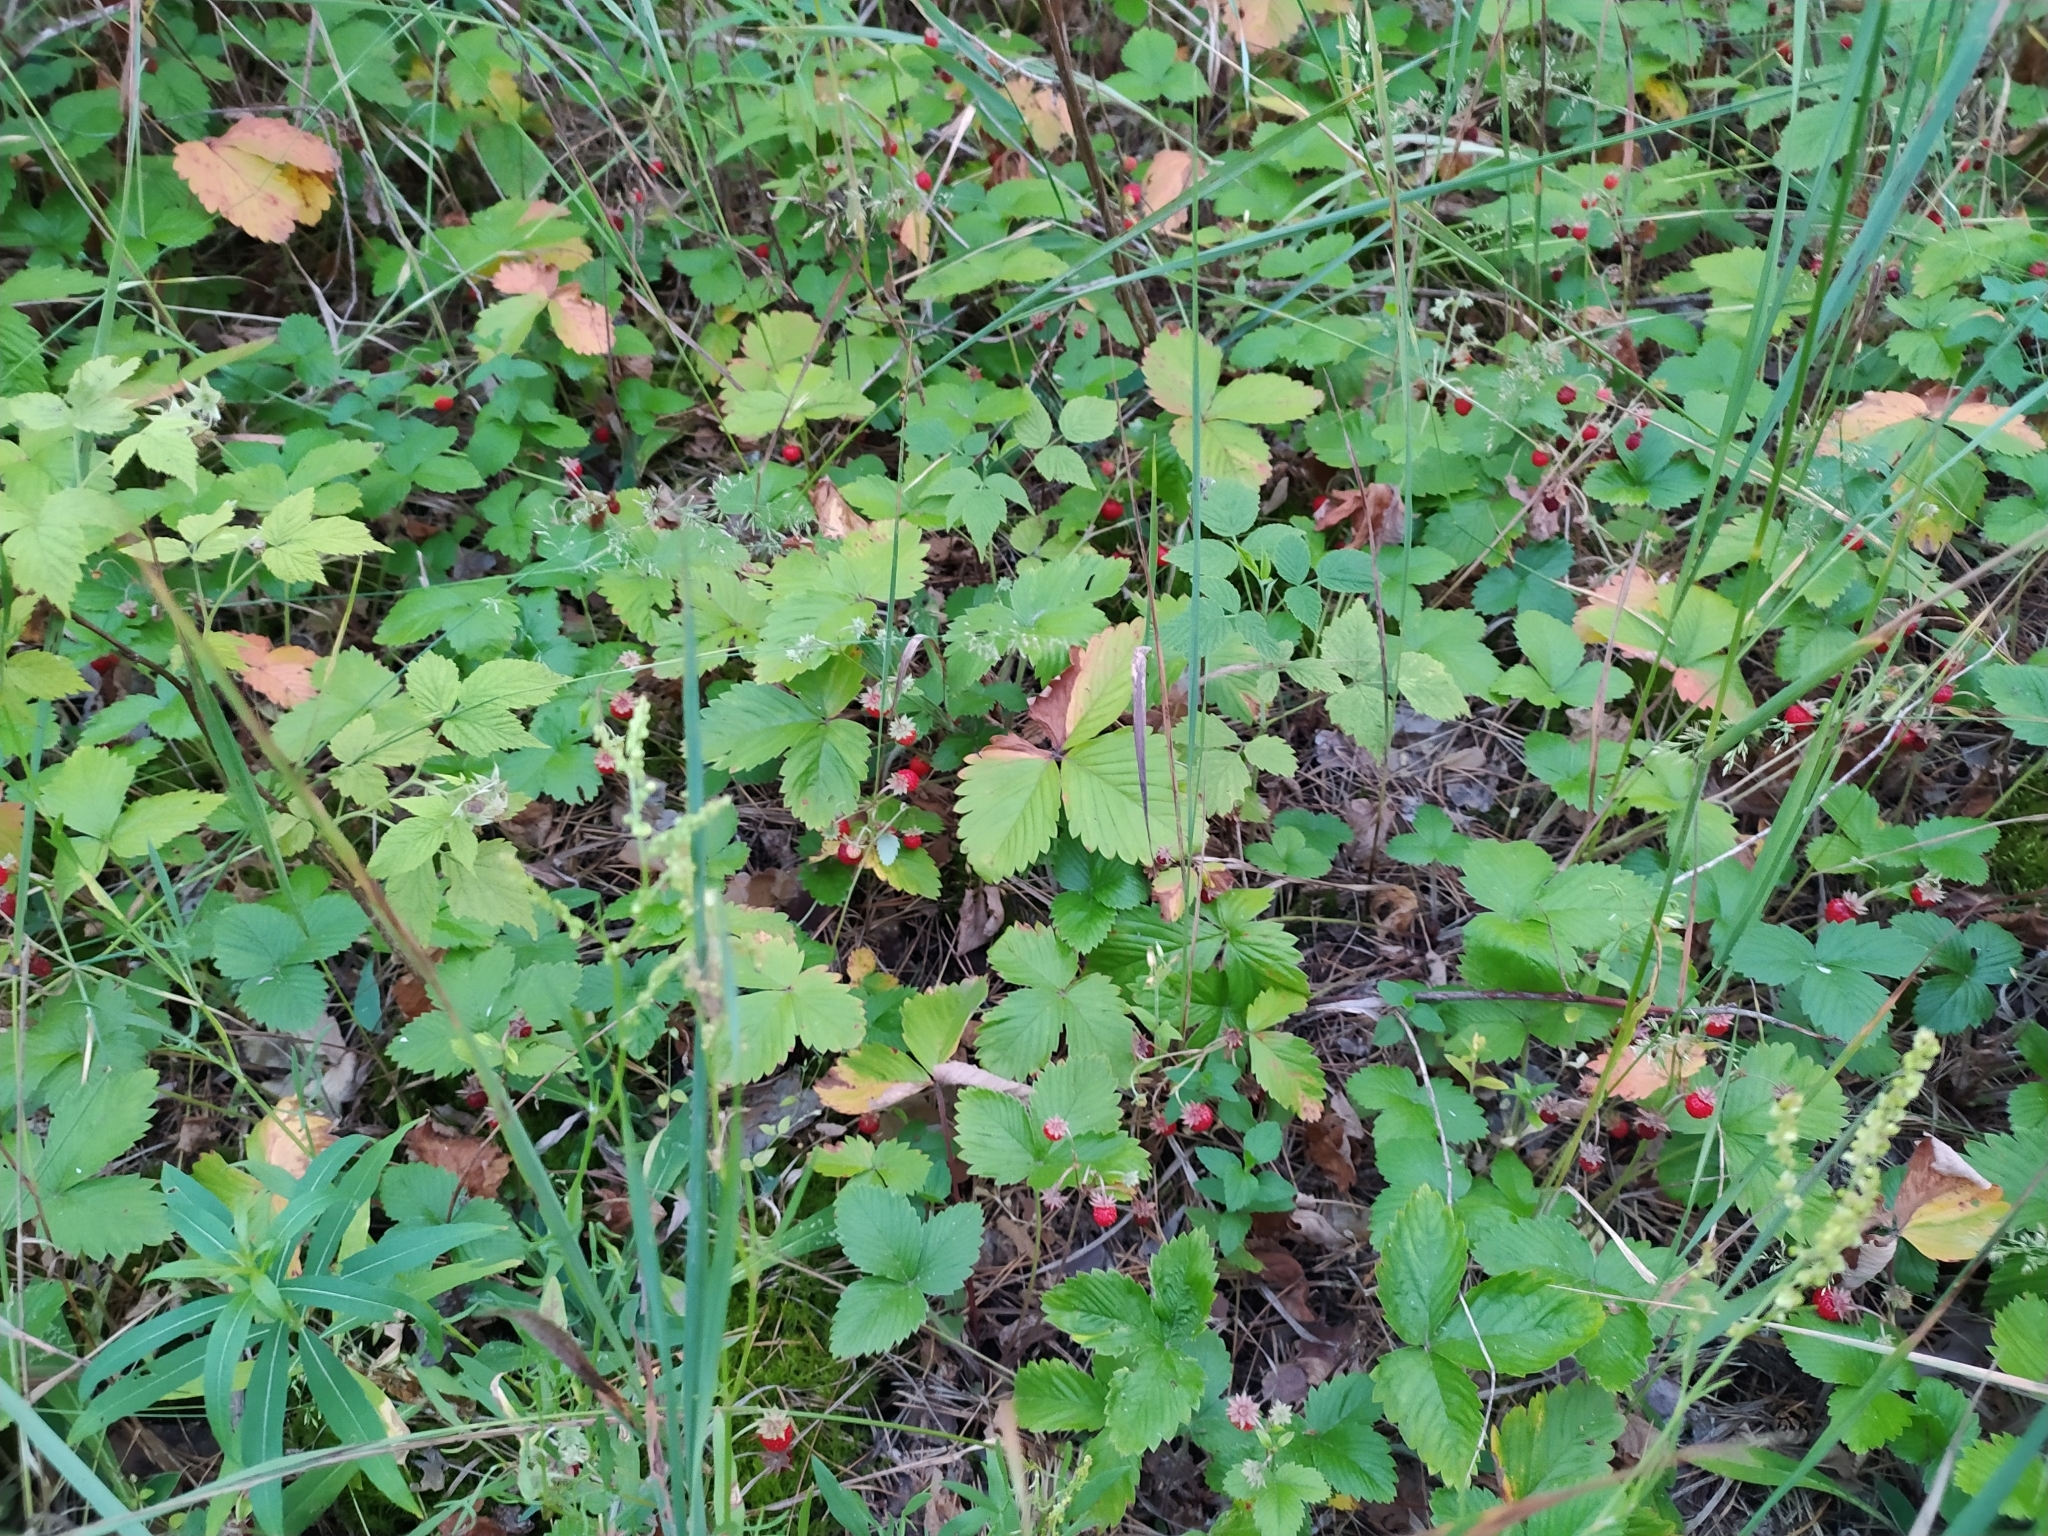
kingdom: Plantae
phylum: Tracheophyta
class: Magnoliopsida
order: Rosales
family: Rosaceae
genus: Fragaria
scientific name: Fragaria vesca
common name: Wild strawberry
